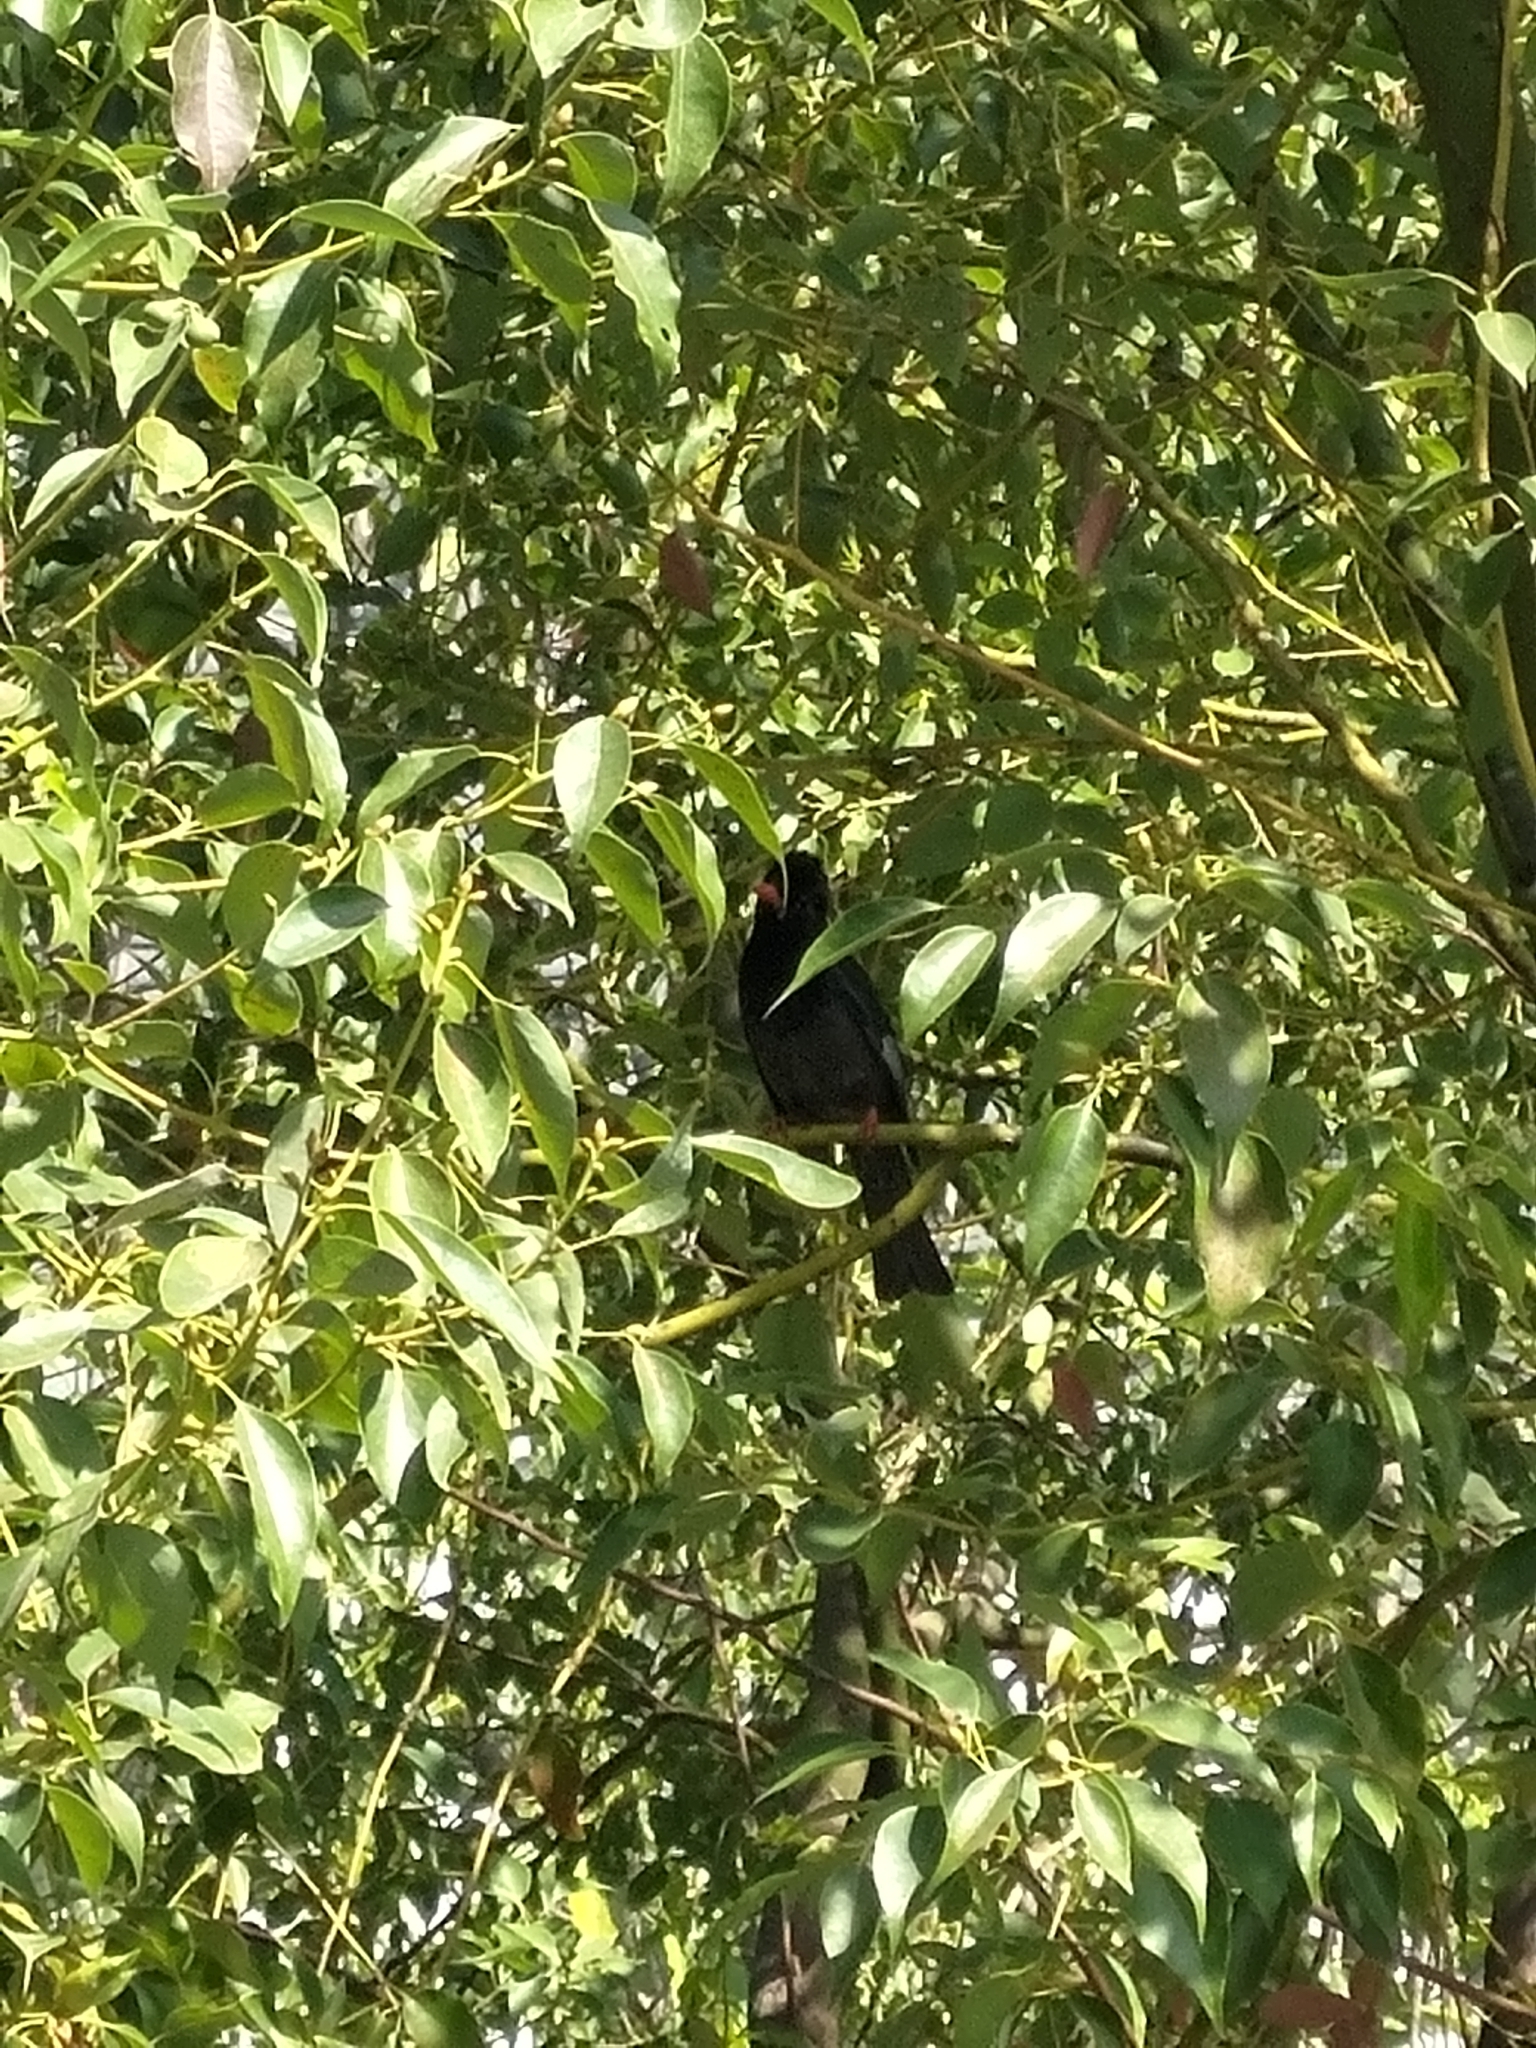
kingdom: Animalia
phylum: Chordata
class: Aves
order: Passeriformes
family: Pycnonotidae
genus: Hypsipetes
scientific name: Hypsipetes leucocephalus
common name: Black bulbul
